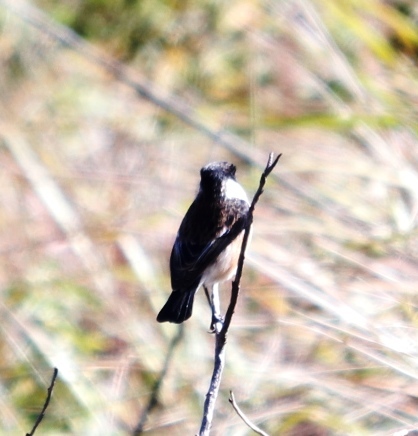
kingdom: Animalia
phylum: Chordata
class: Aves
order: Passeriformes
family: Muscicapidae
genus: Saxicola
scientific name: Saxicola torquatus
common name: African stonechat
